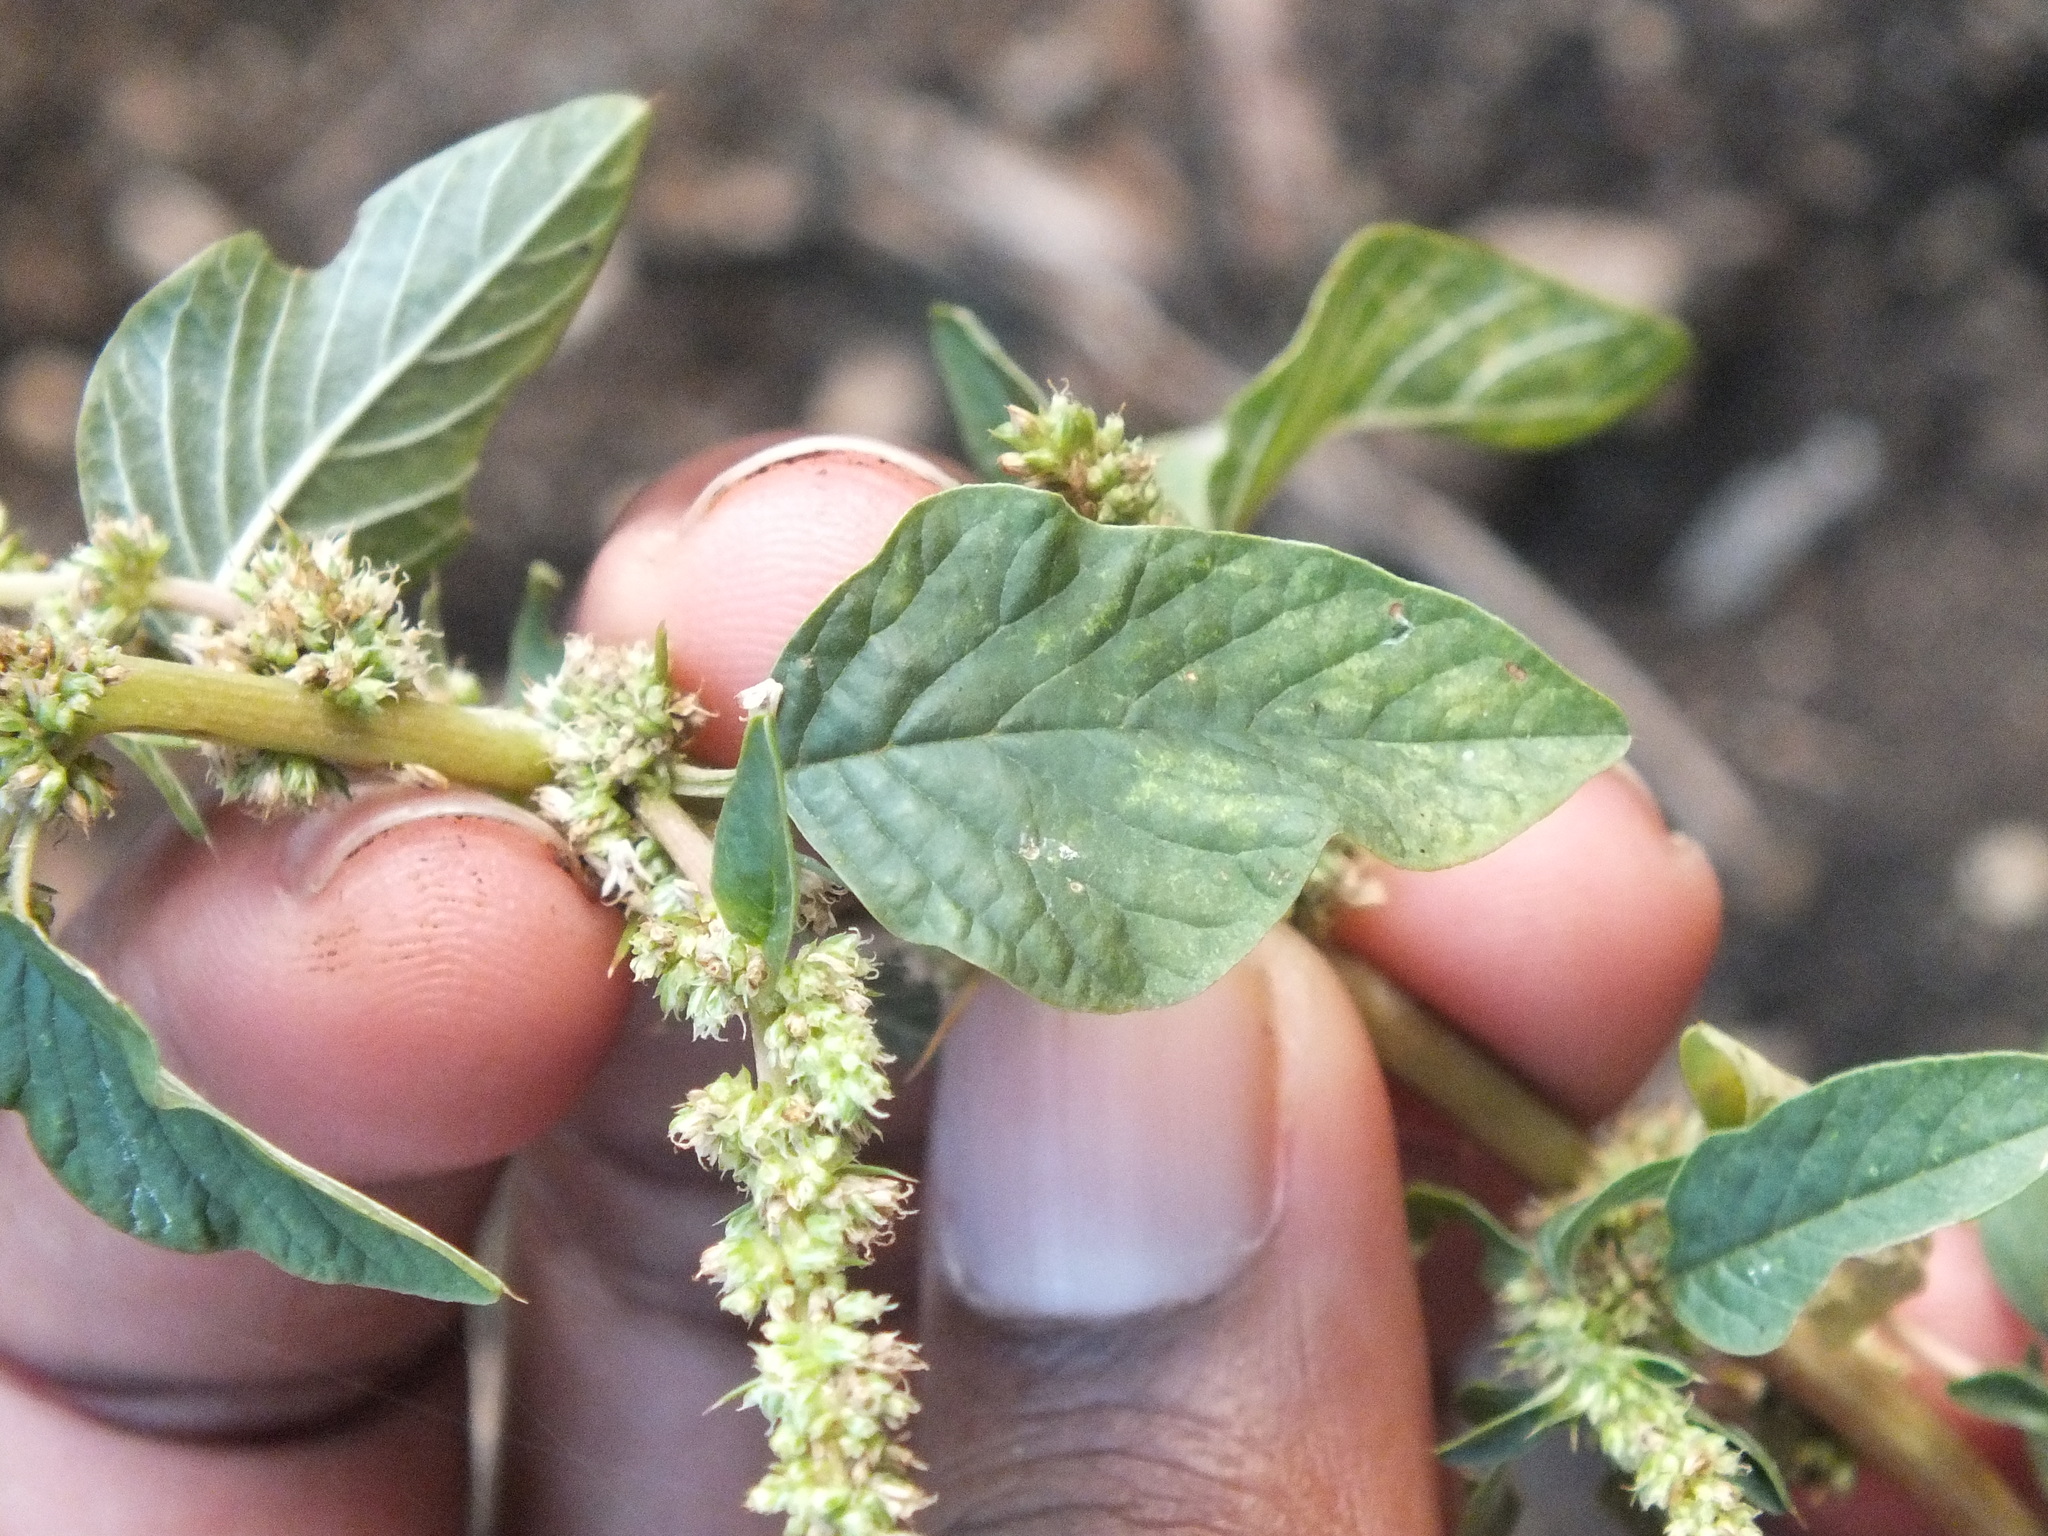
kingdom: Plantae
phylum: Tracheophyta
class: Magnoliopsida
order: Caryophyllales
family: Amaranthaceae
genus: Amaranthus
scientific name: Amaranthus spinosus
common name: Spiny amaranth
